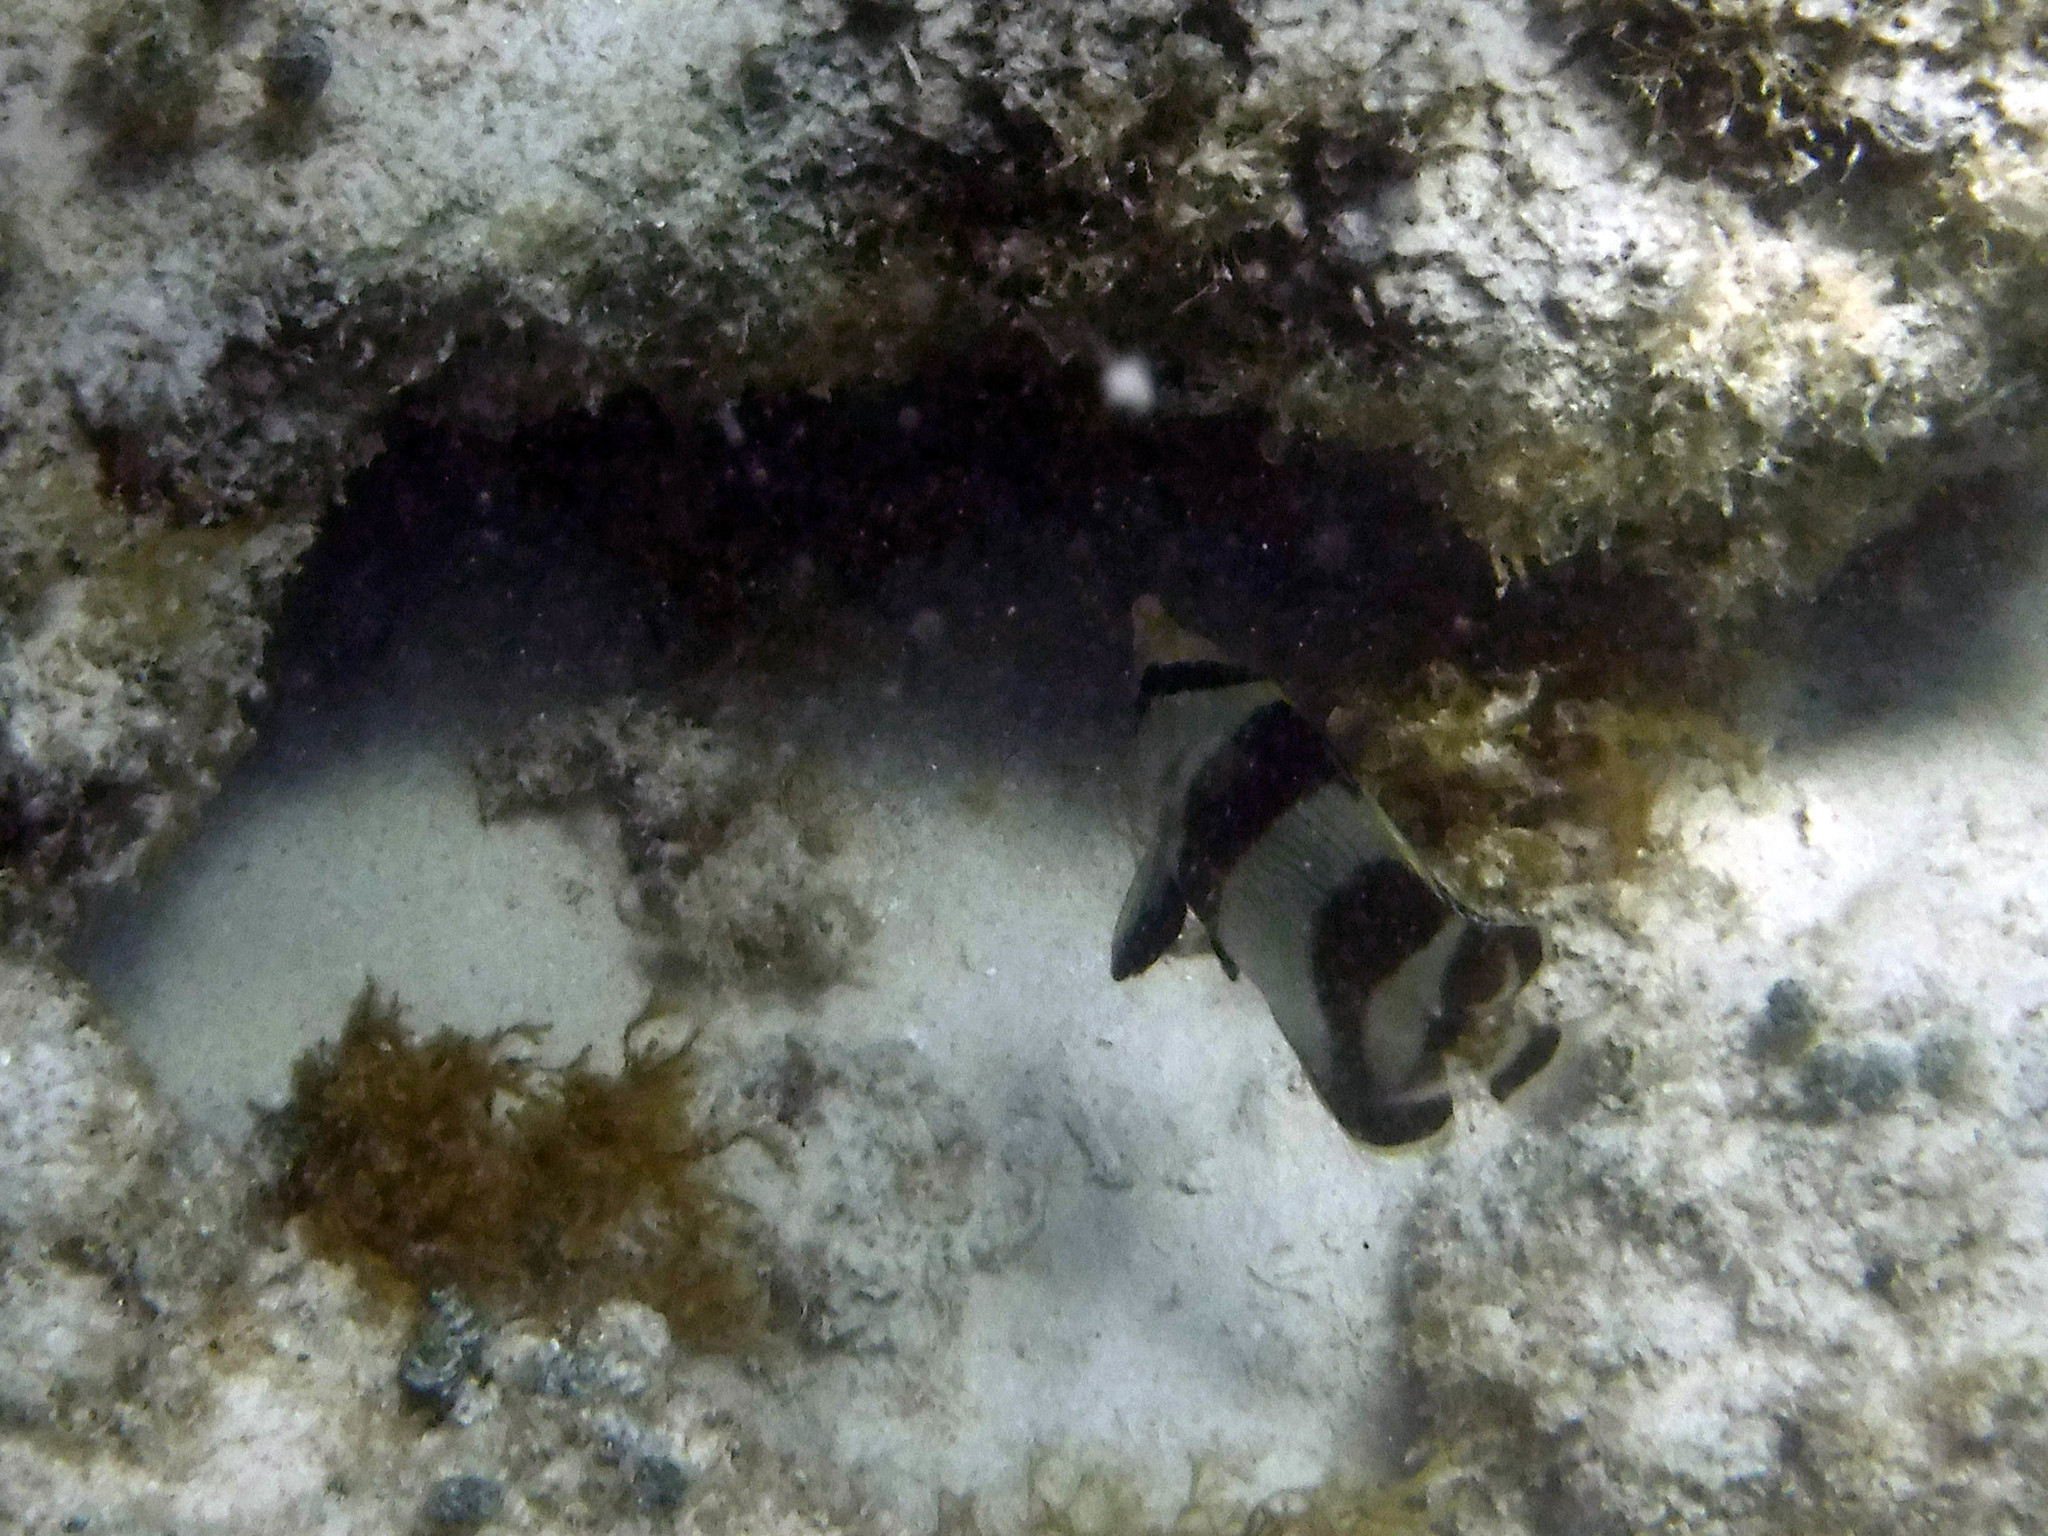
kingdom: Animalia
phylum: Chordata
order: Perciformes
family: Chaetodontidae
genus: Chaetodon
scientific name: Chaetodon striatus
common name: Banded butterflyfish
